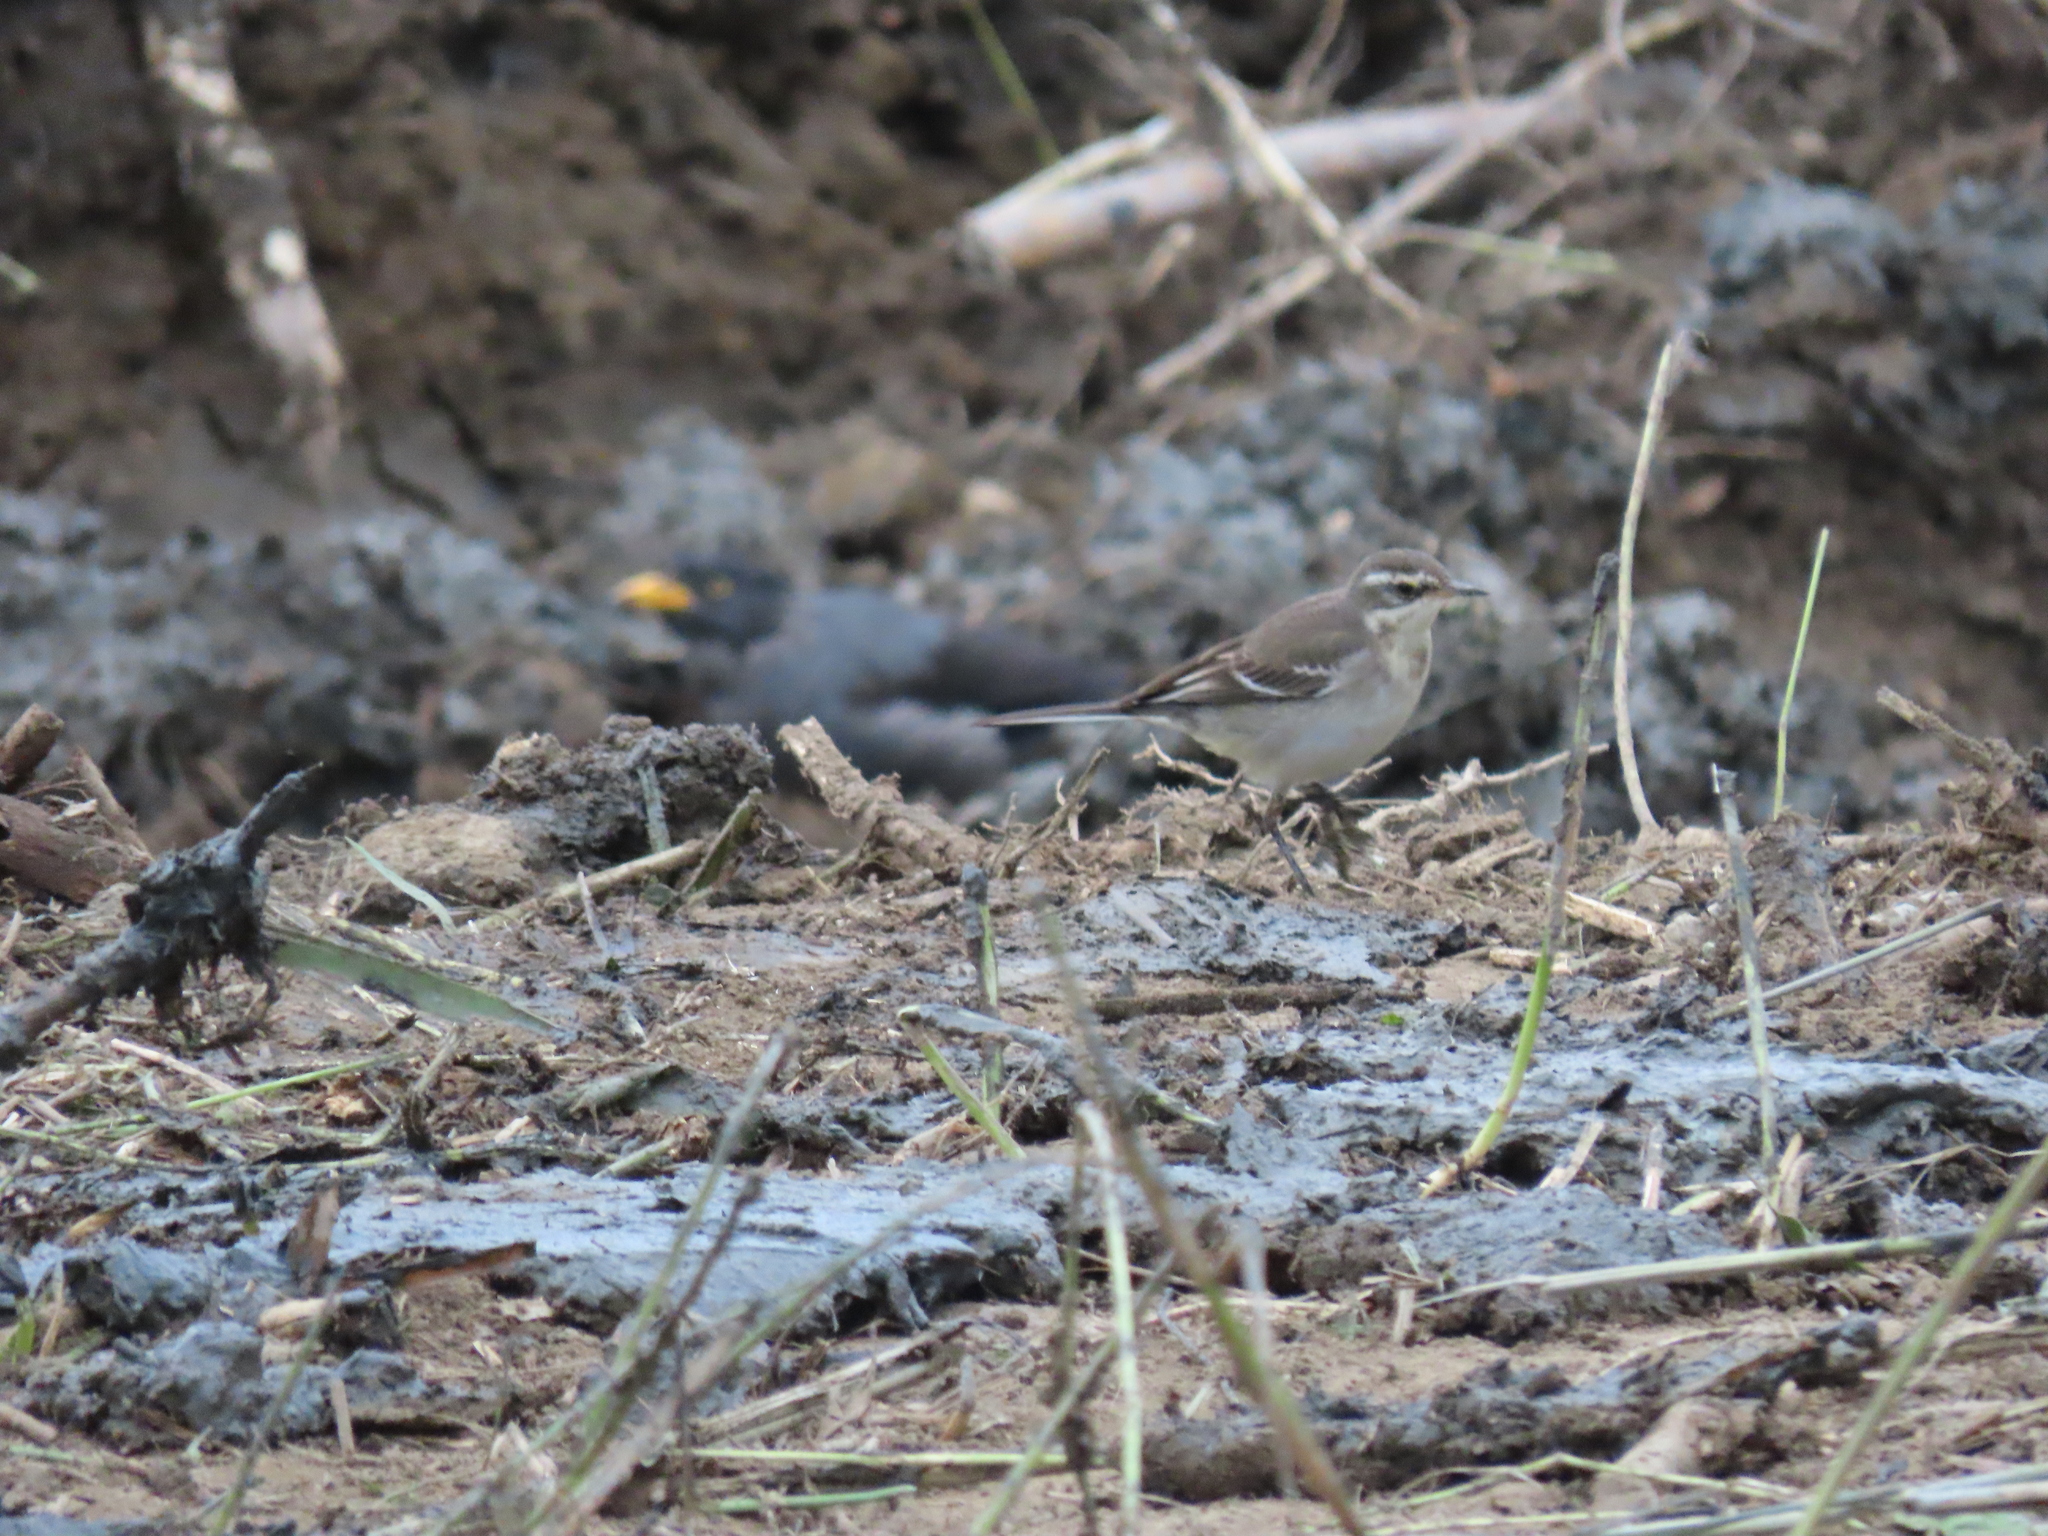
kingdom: Animalia
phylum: Chordata
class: Aves
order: Passeriformes
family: Motacillidae
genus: Motacilla
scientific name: Motacilla tschutschensis
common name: Eastern yellow wagtail
